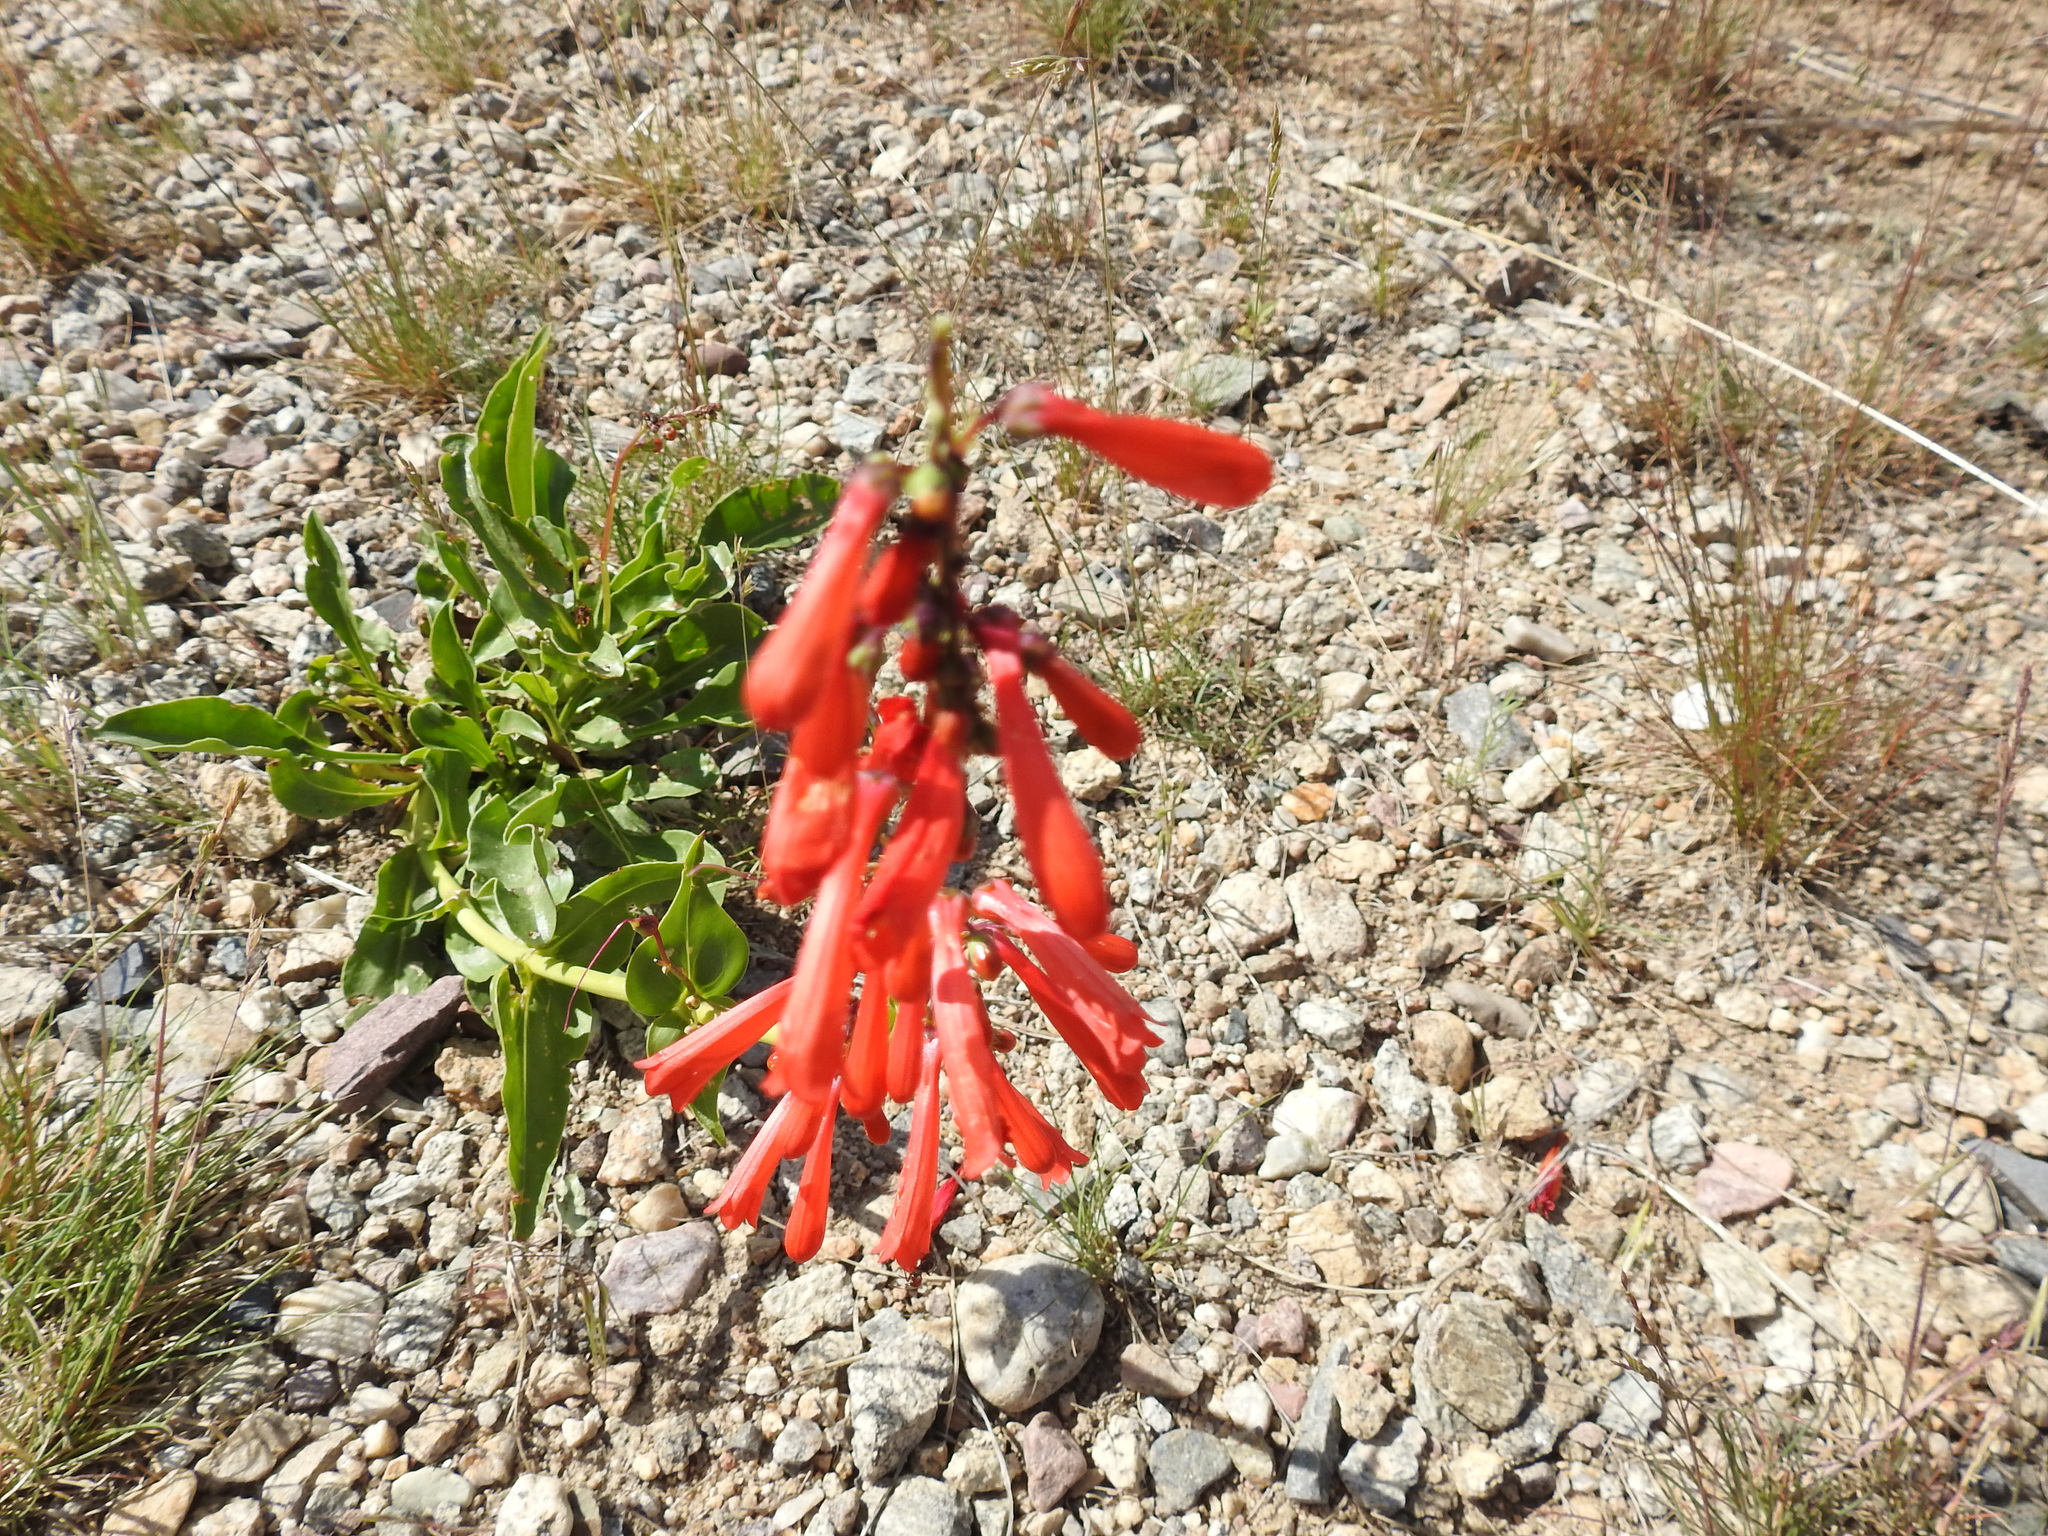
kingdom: Plantae
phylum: Tracheophyta
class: Magnoliopsida
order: Lamiales
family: Plantaginaceae
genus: Penstemon
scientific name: Penstemon eatonii
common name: Eaton's penstemon
